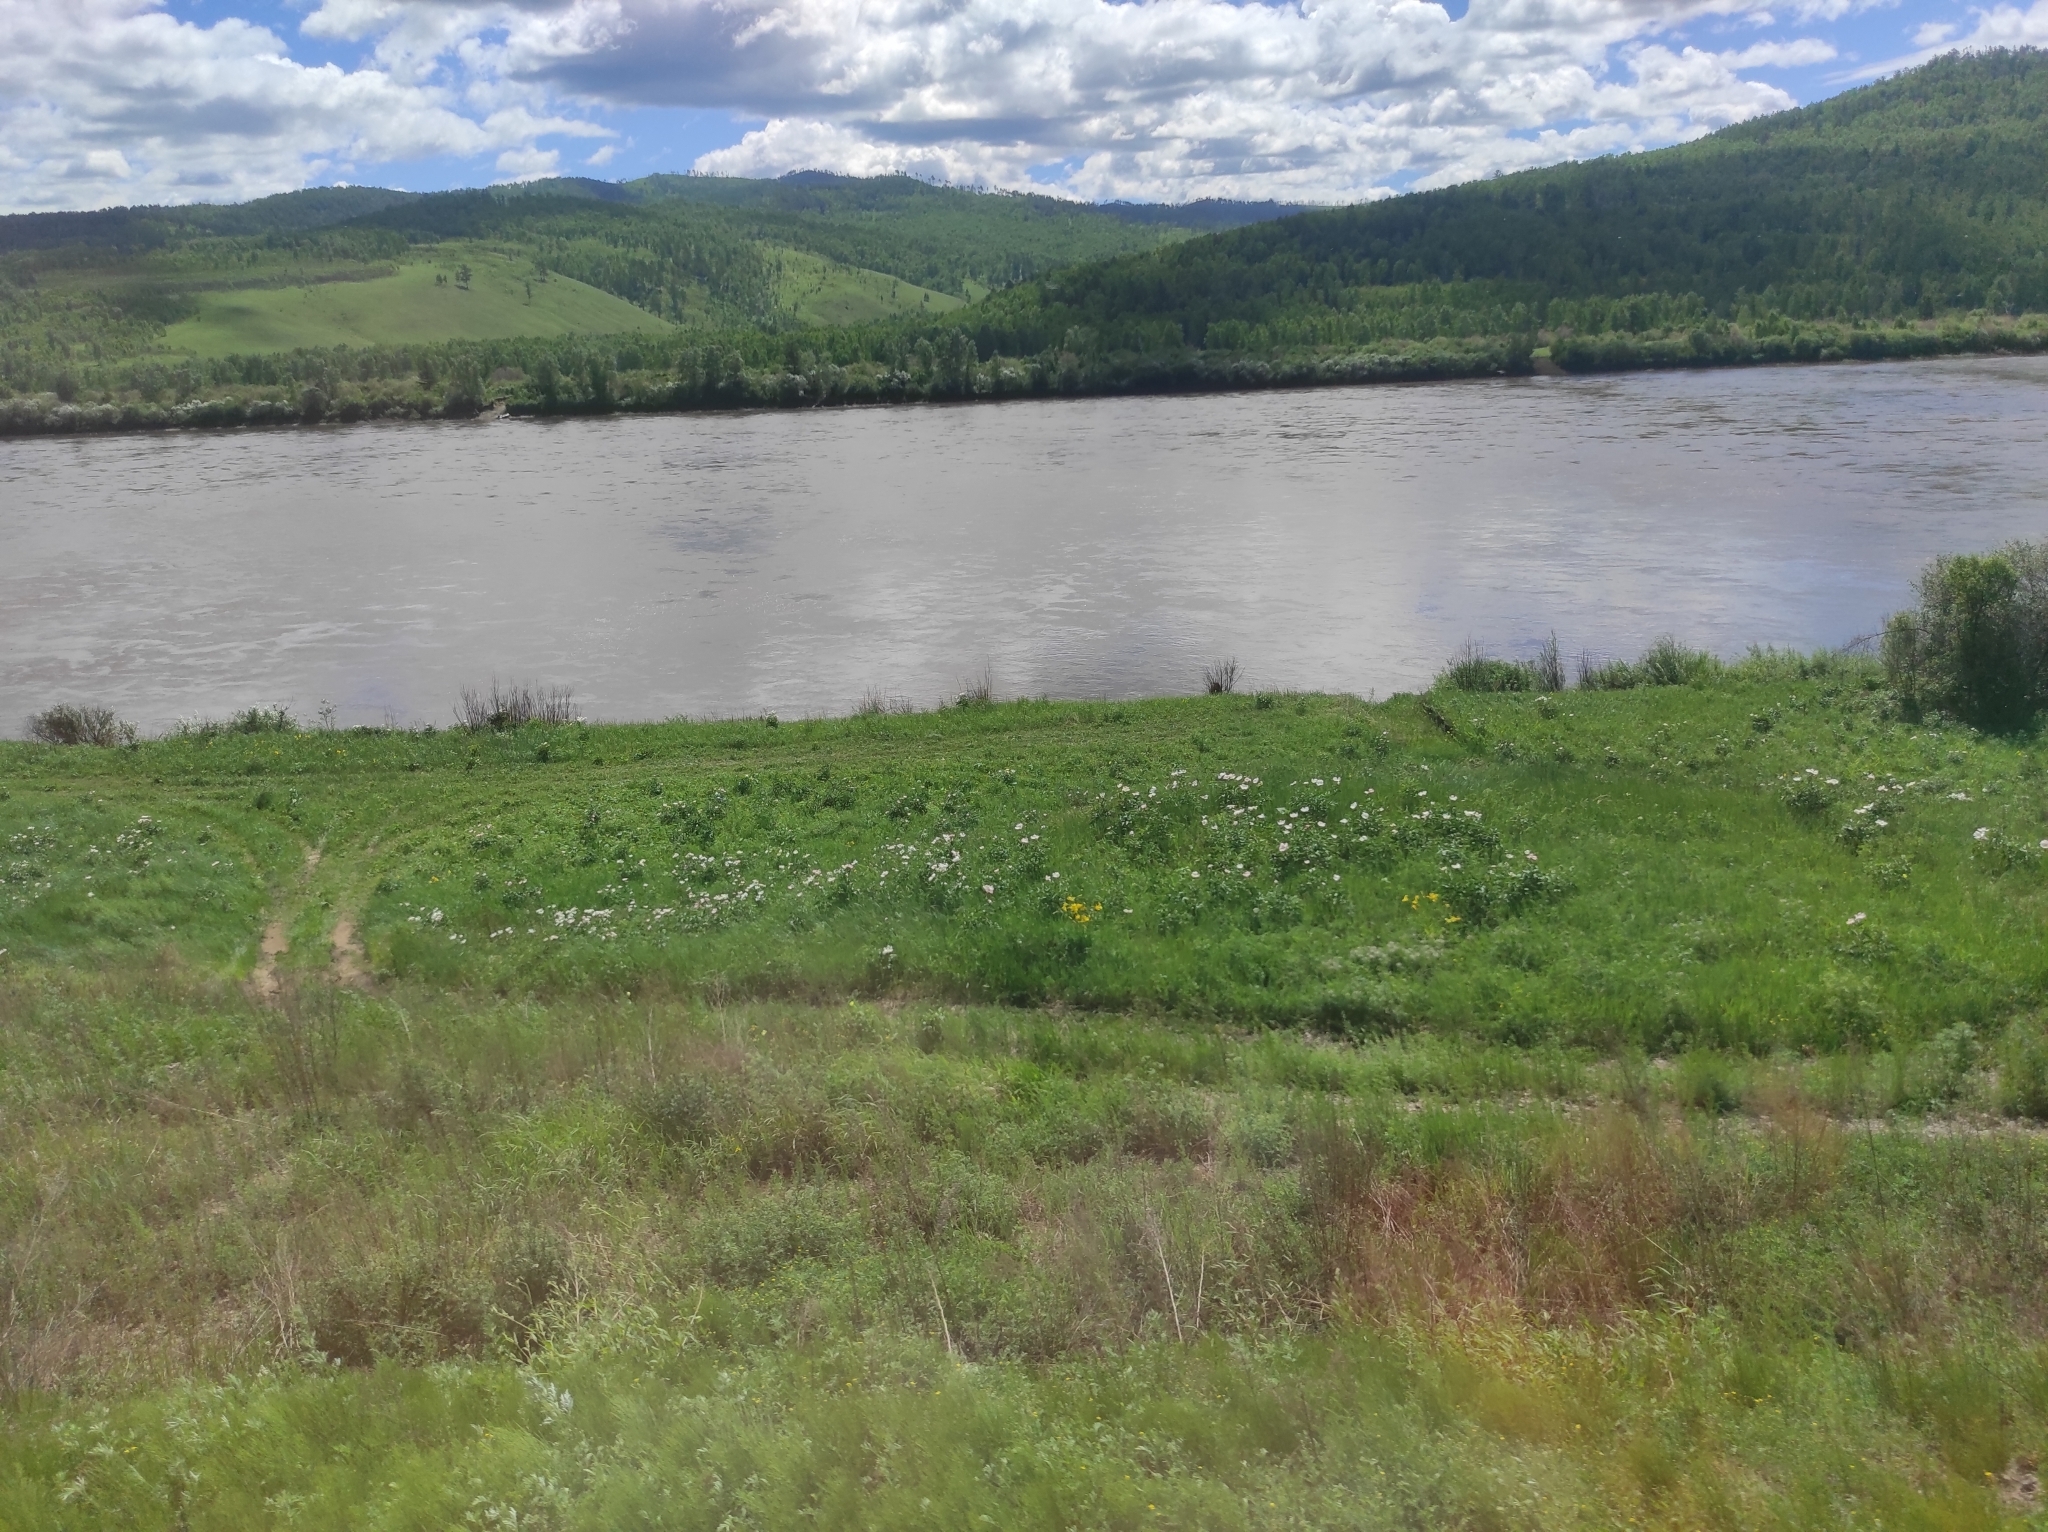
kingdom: Plantae
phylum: Tracheophyta
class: Magnoliopsida
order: Saxifragales
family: Paeoniaceae
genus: Paeonia
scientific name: Paeonia lactiflora
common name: Chinese peony
